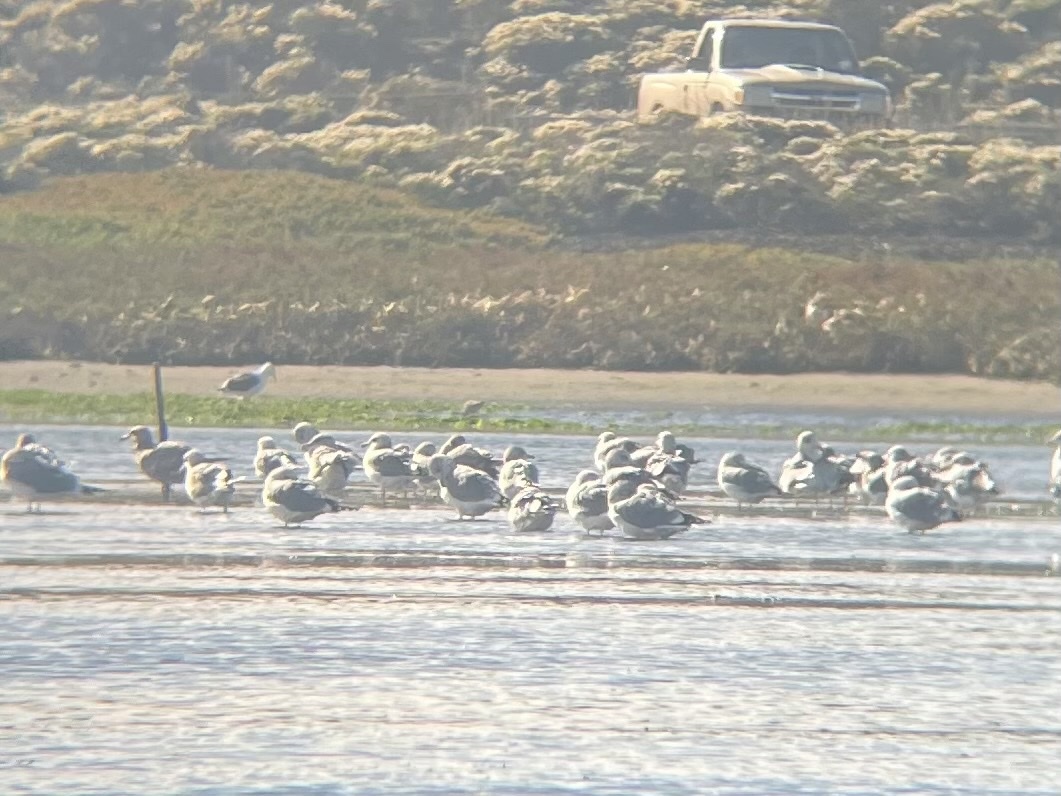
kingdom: Animalia
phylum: Chordata
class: Aves
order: Charadriiformes
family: Laridae
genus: Larus
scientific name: Larus occidentalis
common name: Western gull
